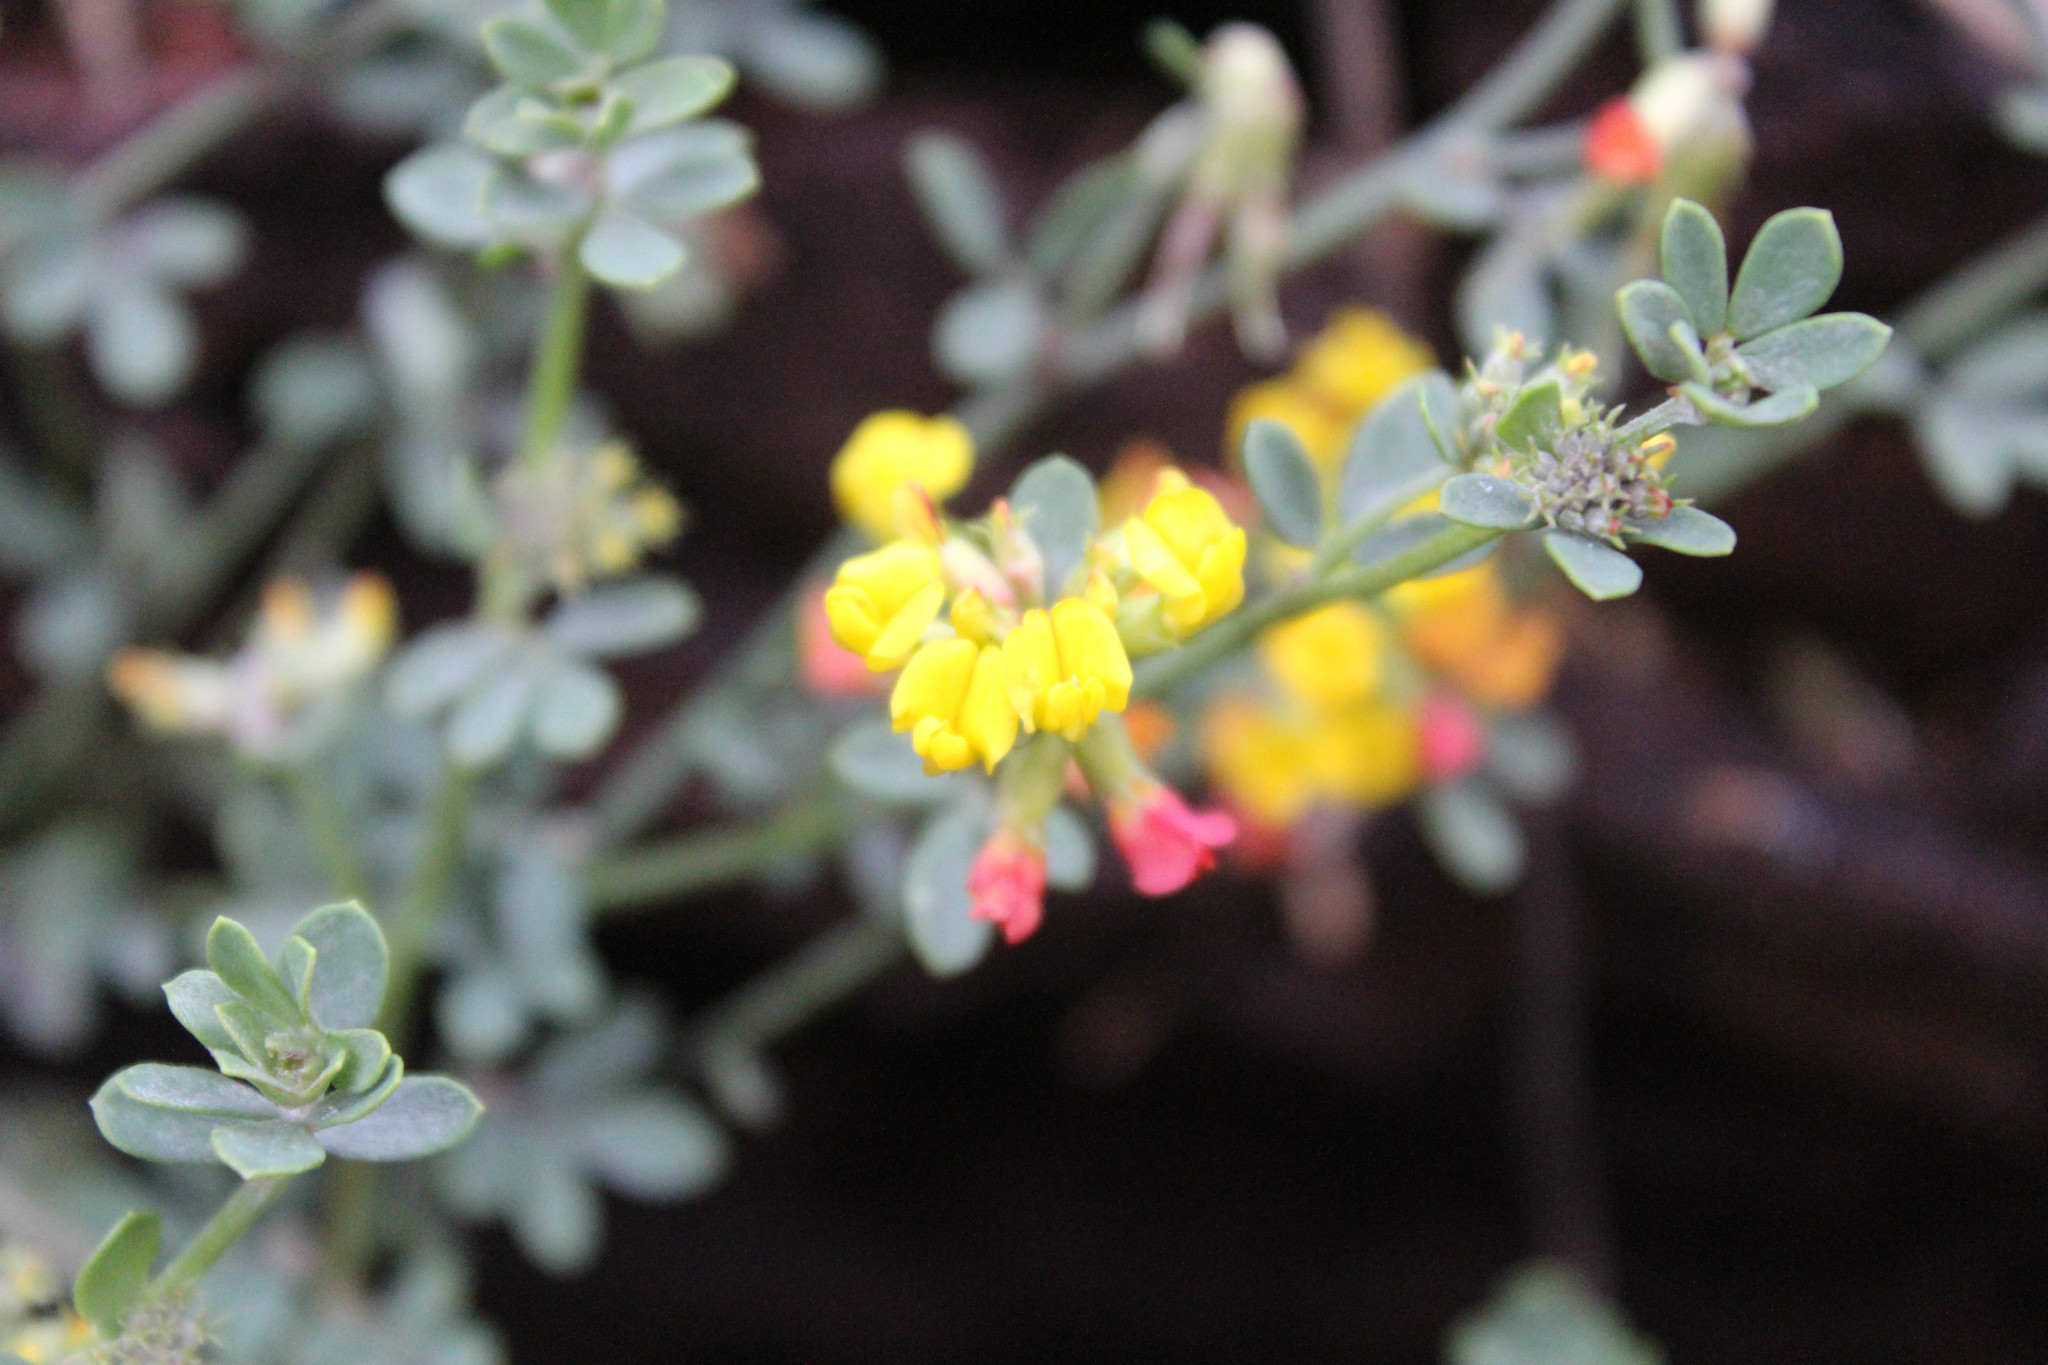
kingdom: Plantae
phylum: Tracheophyta
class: Magnoliopsida
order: Fabales
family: Fabaceae
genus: Acmispon
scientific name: Acmispon glaber
